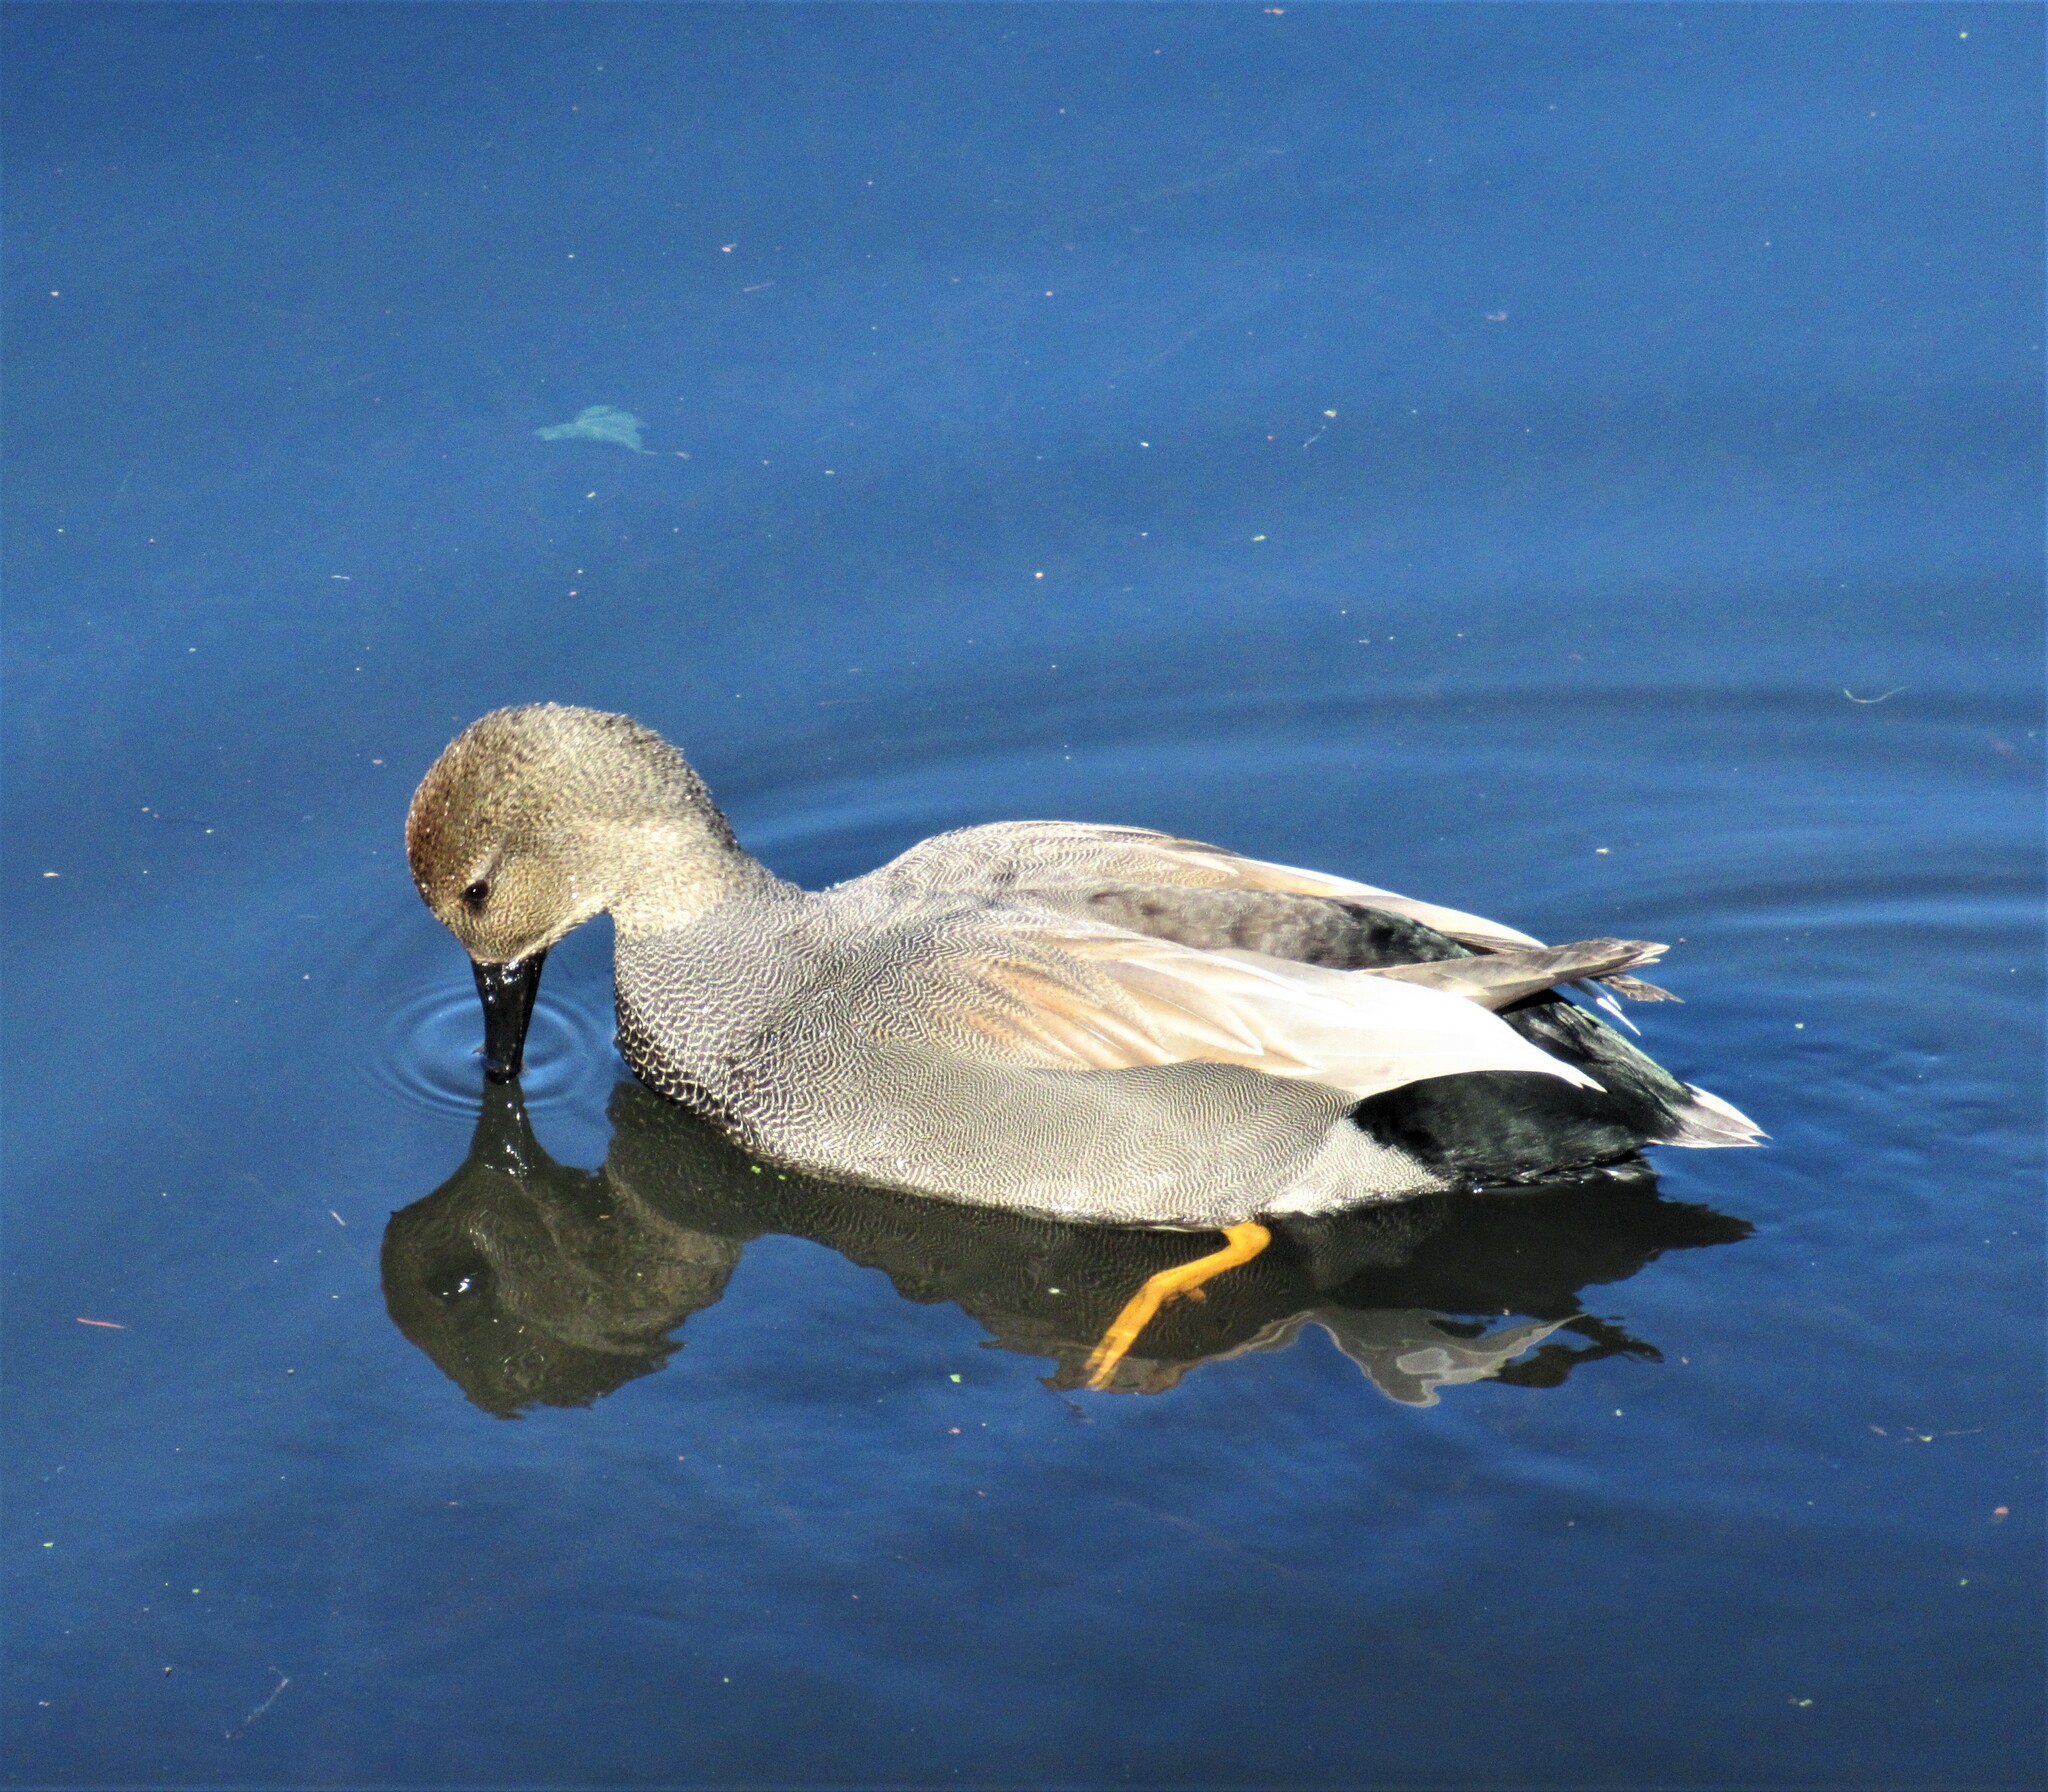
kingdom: Animalia
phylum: Chordata
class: Aves
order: Anseriformes
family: Anatidae
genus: Mareca
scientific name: Mareca strepera
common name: Gadwall
